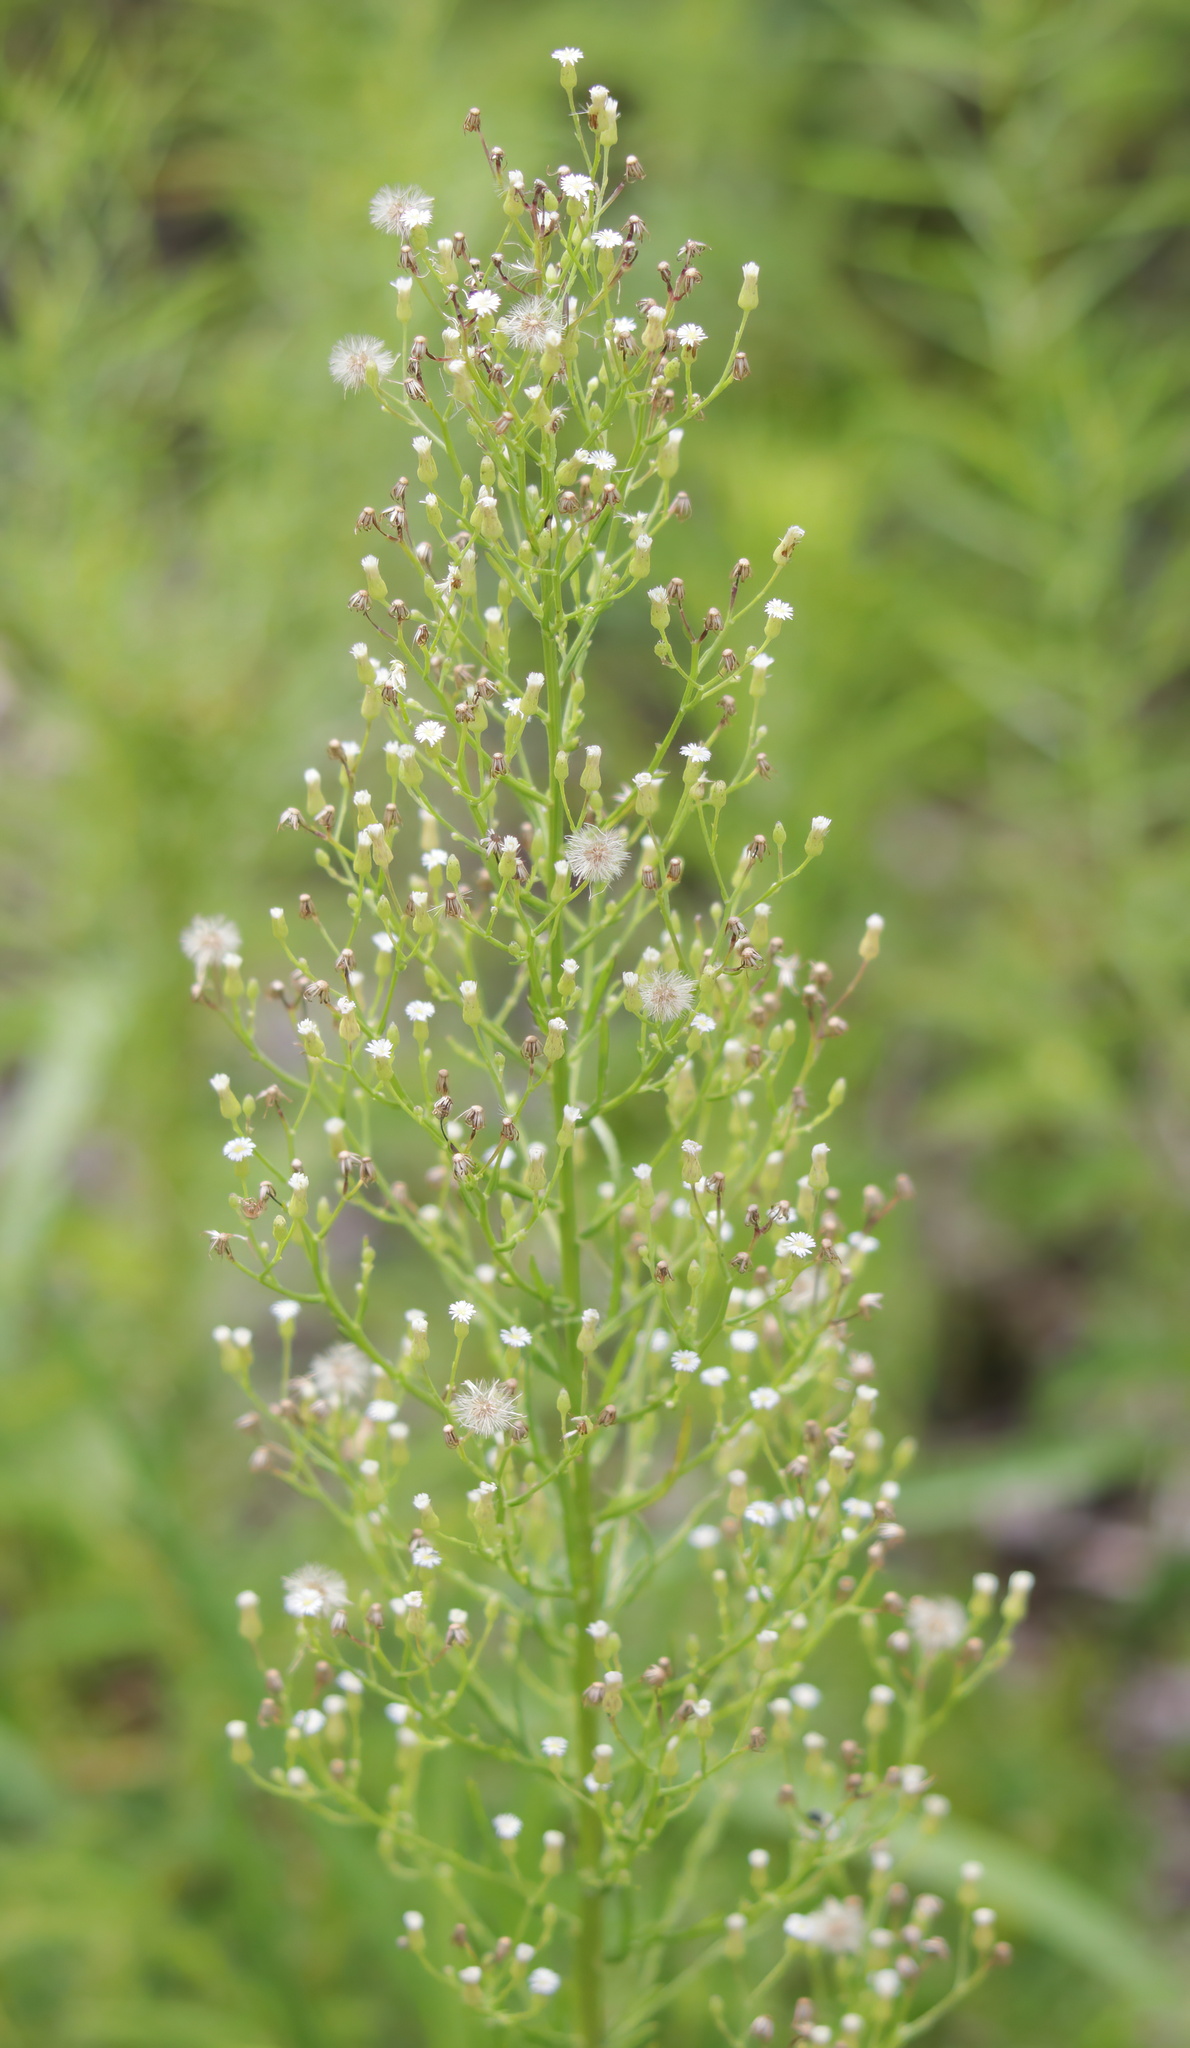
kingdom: Plantae
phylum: Tracheophyta
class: Magnoliopsida
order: Asterales
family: Asteraceae
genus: Erigeron
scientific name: Erigeron canadensis
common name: Canadian fleabane
